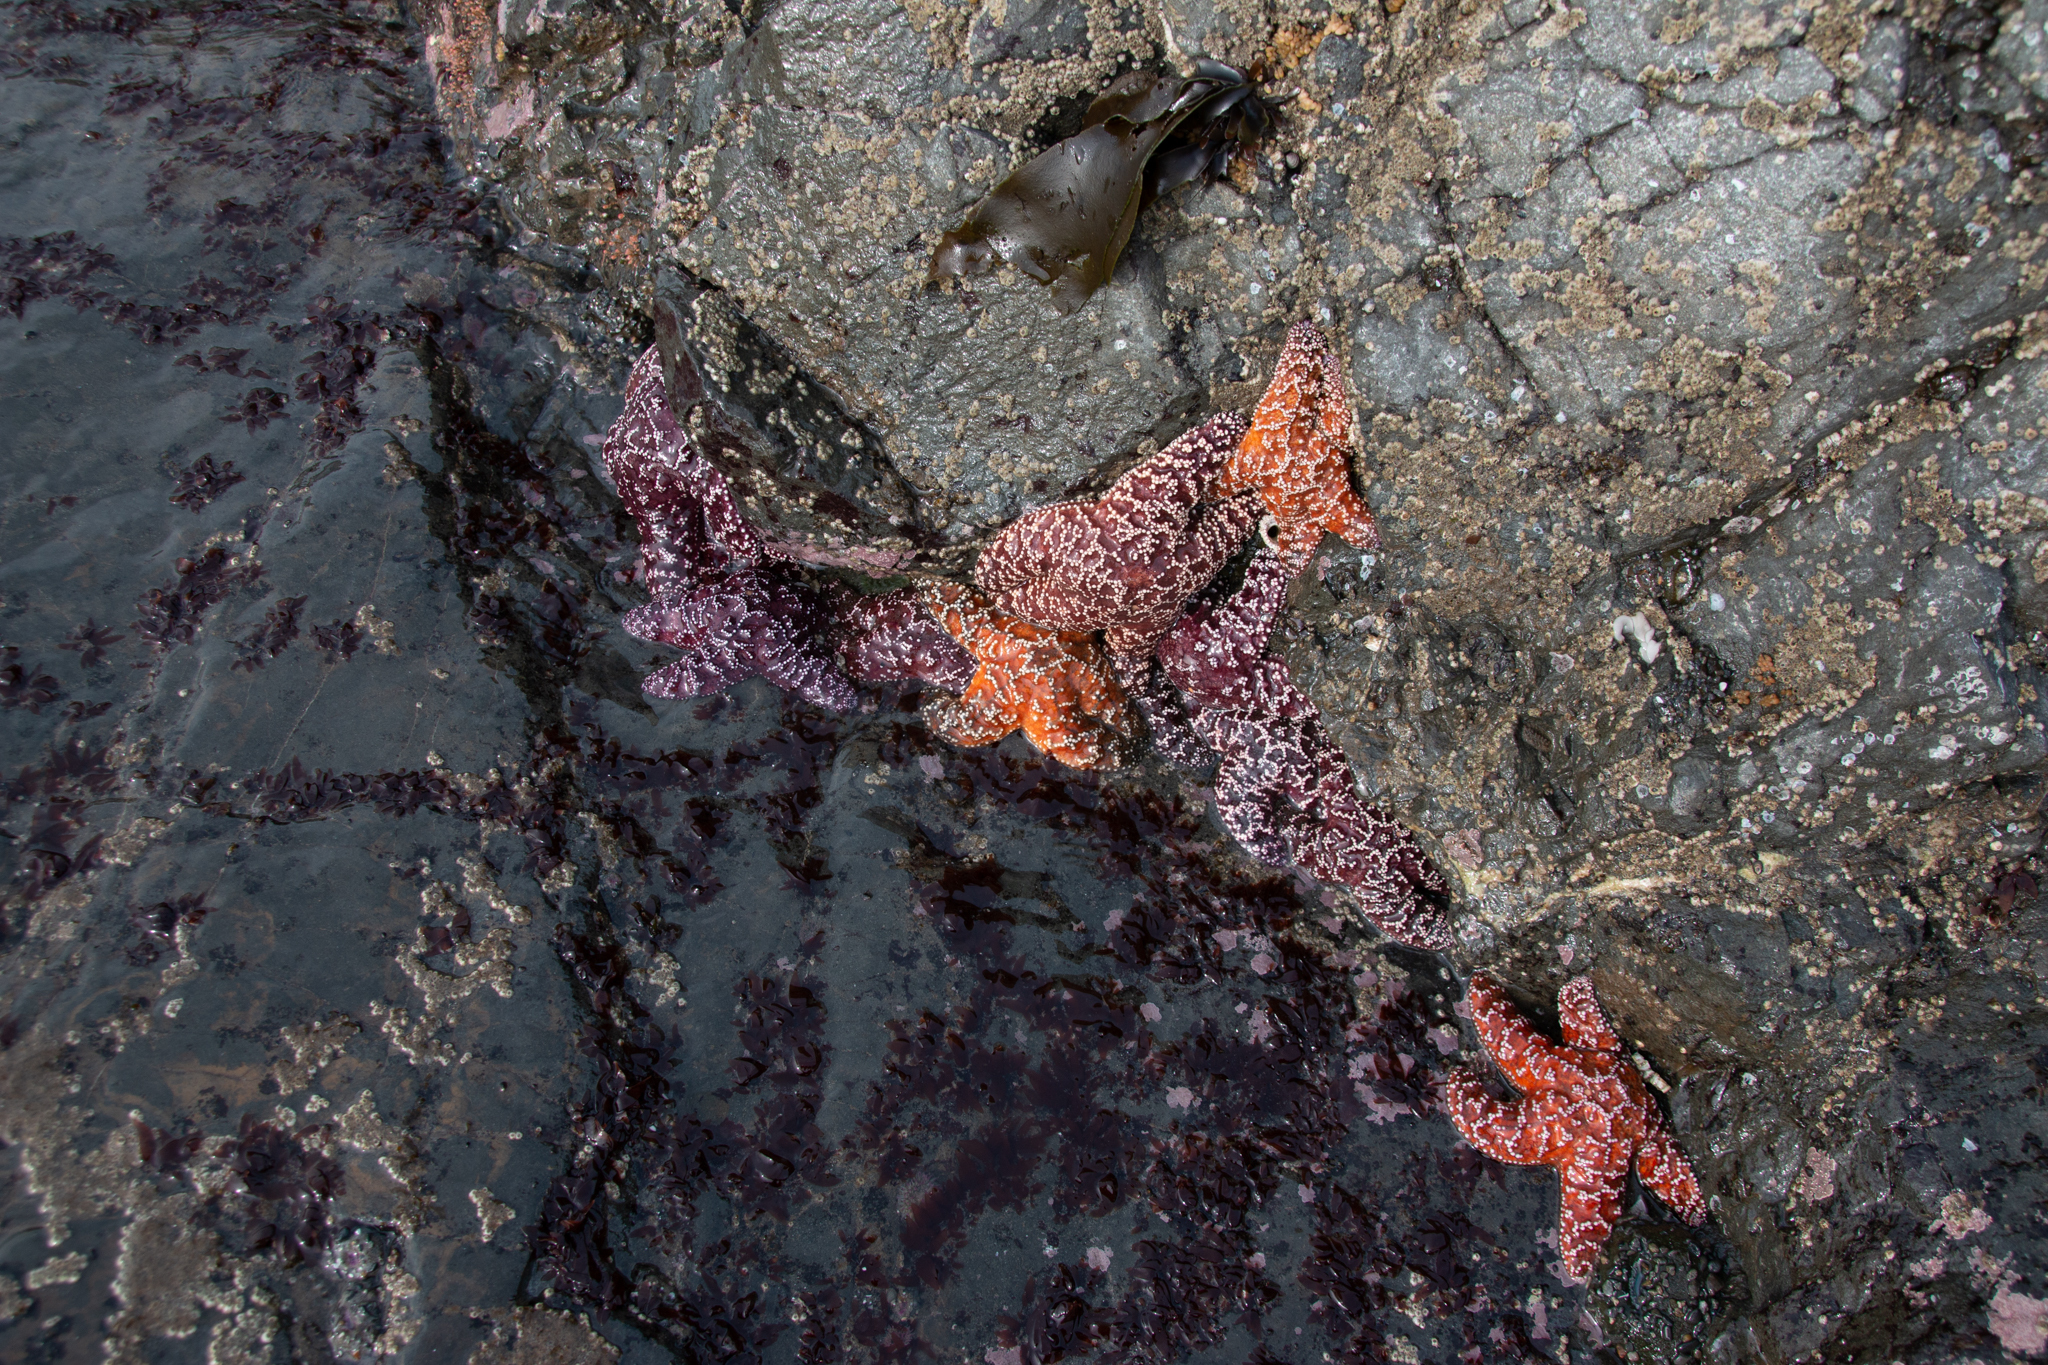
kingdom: Animalia
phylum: Echinodermata
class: Asteroidea
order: Forcipulatida
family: Asteriidae
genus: Pisaster
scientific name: Pisaster ochraceus
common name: Ochre stars
